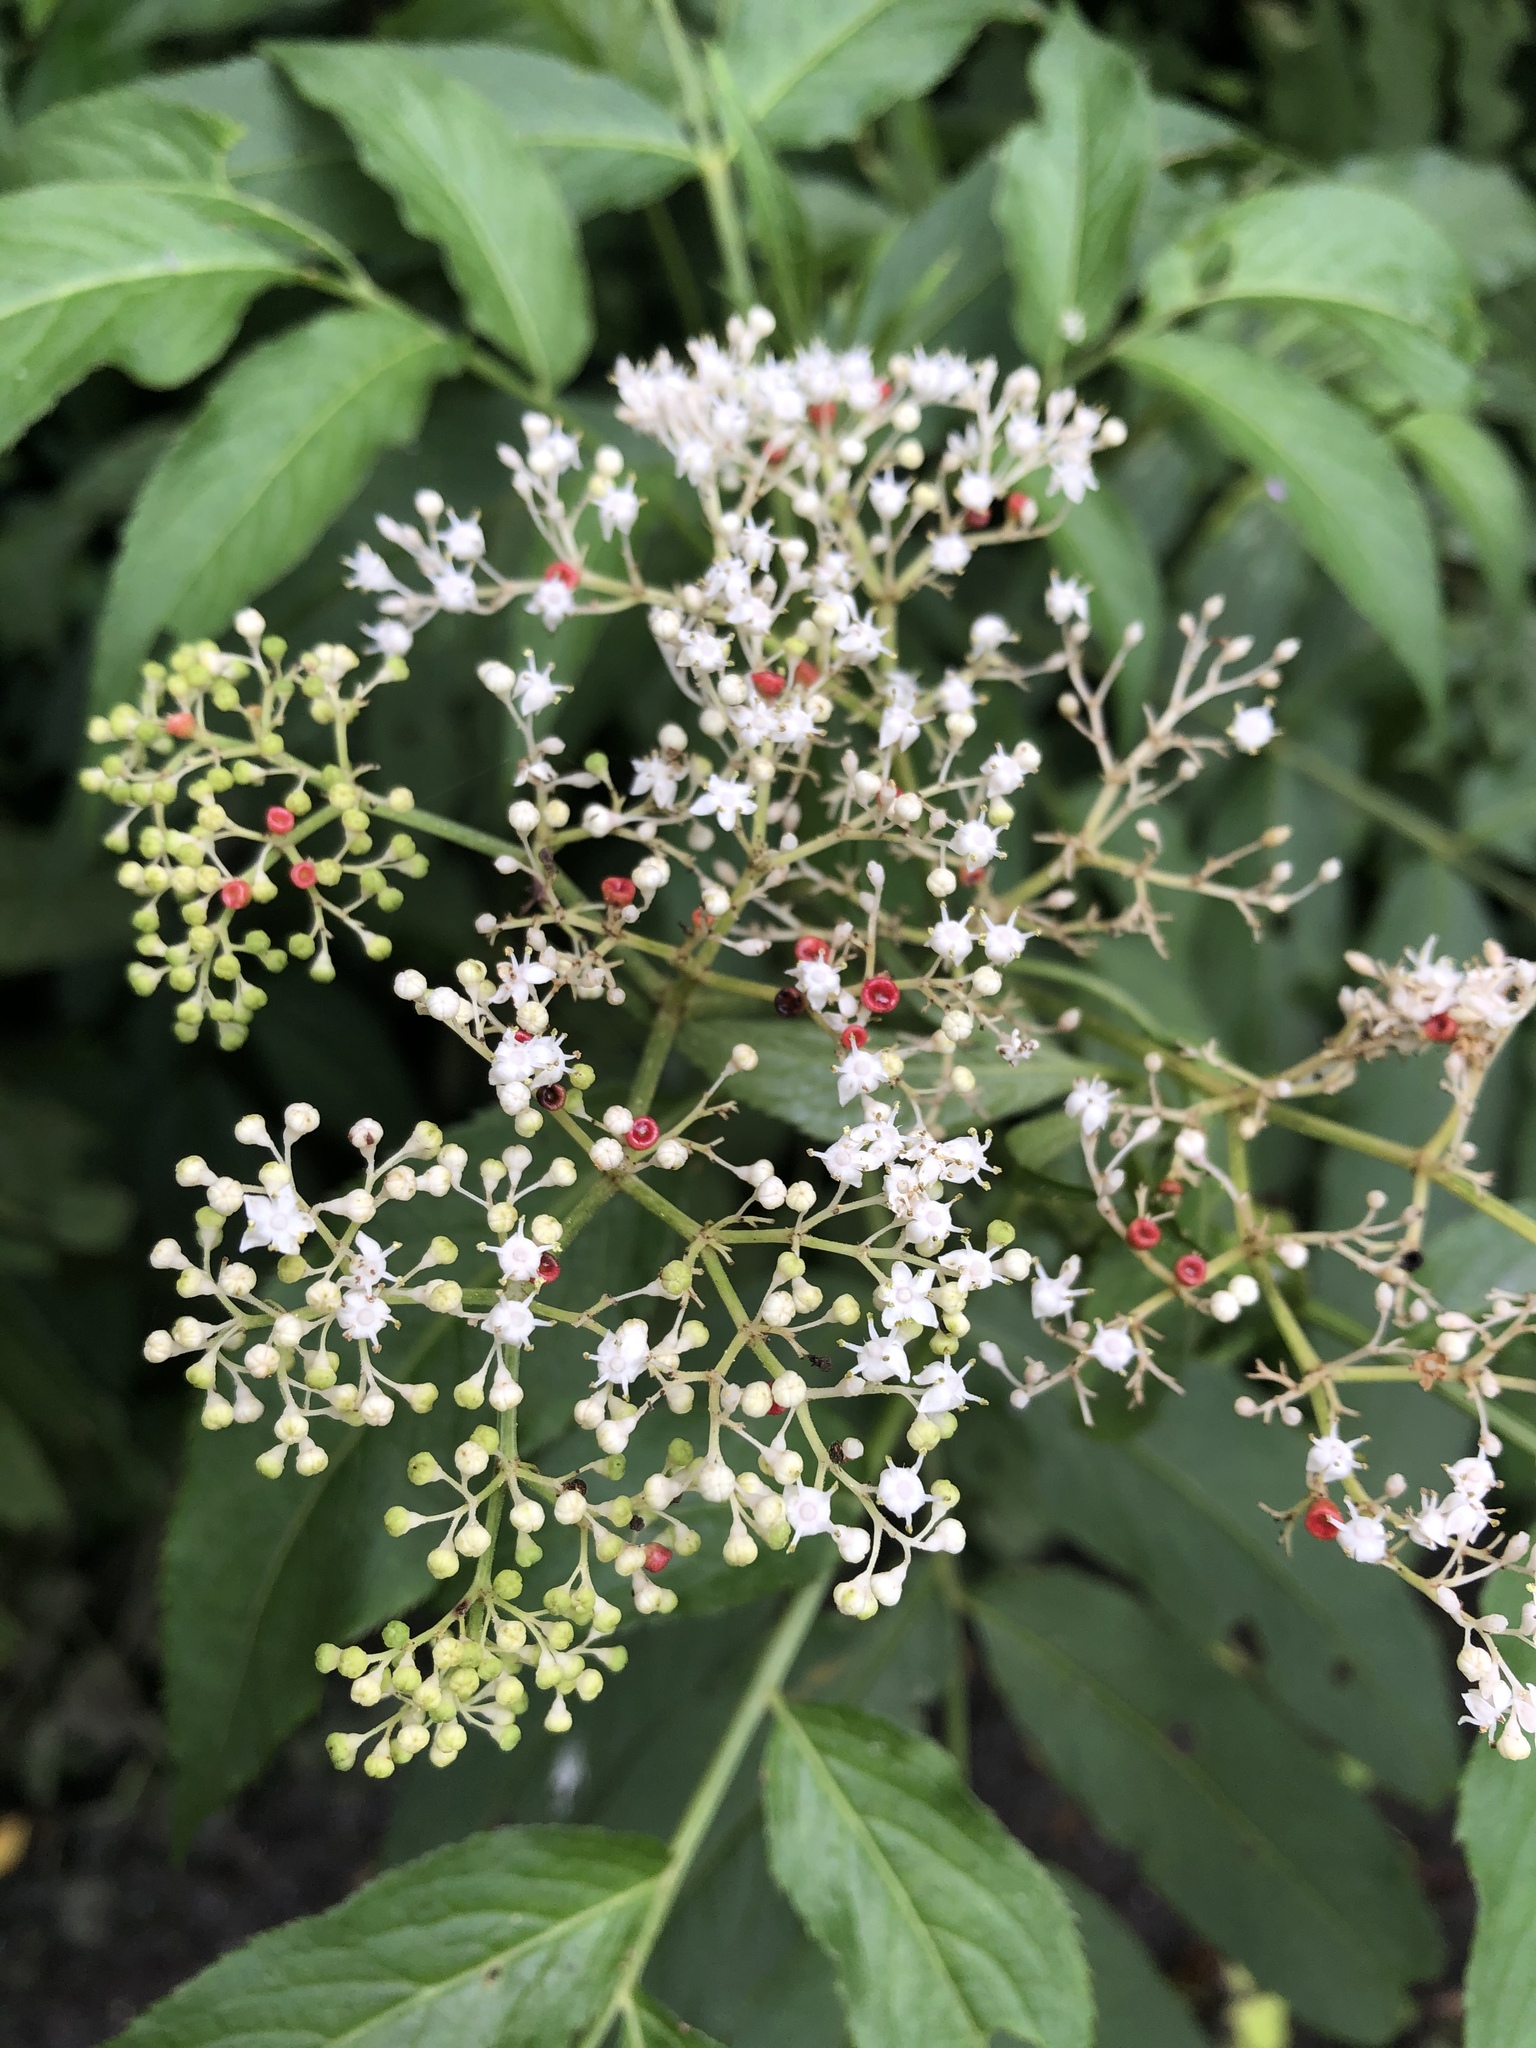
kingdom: Plantae
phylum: Tracheophyta
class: Magnoliopsida
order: Dipsacales
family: Viburnaceae
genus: Sambucus
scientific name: Sambucus javanica
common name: Chinese elder
